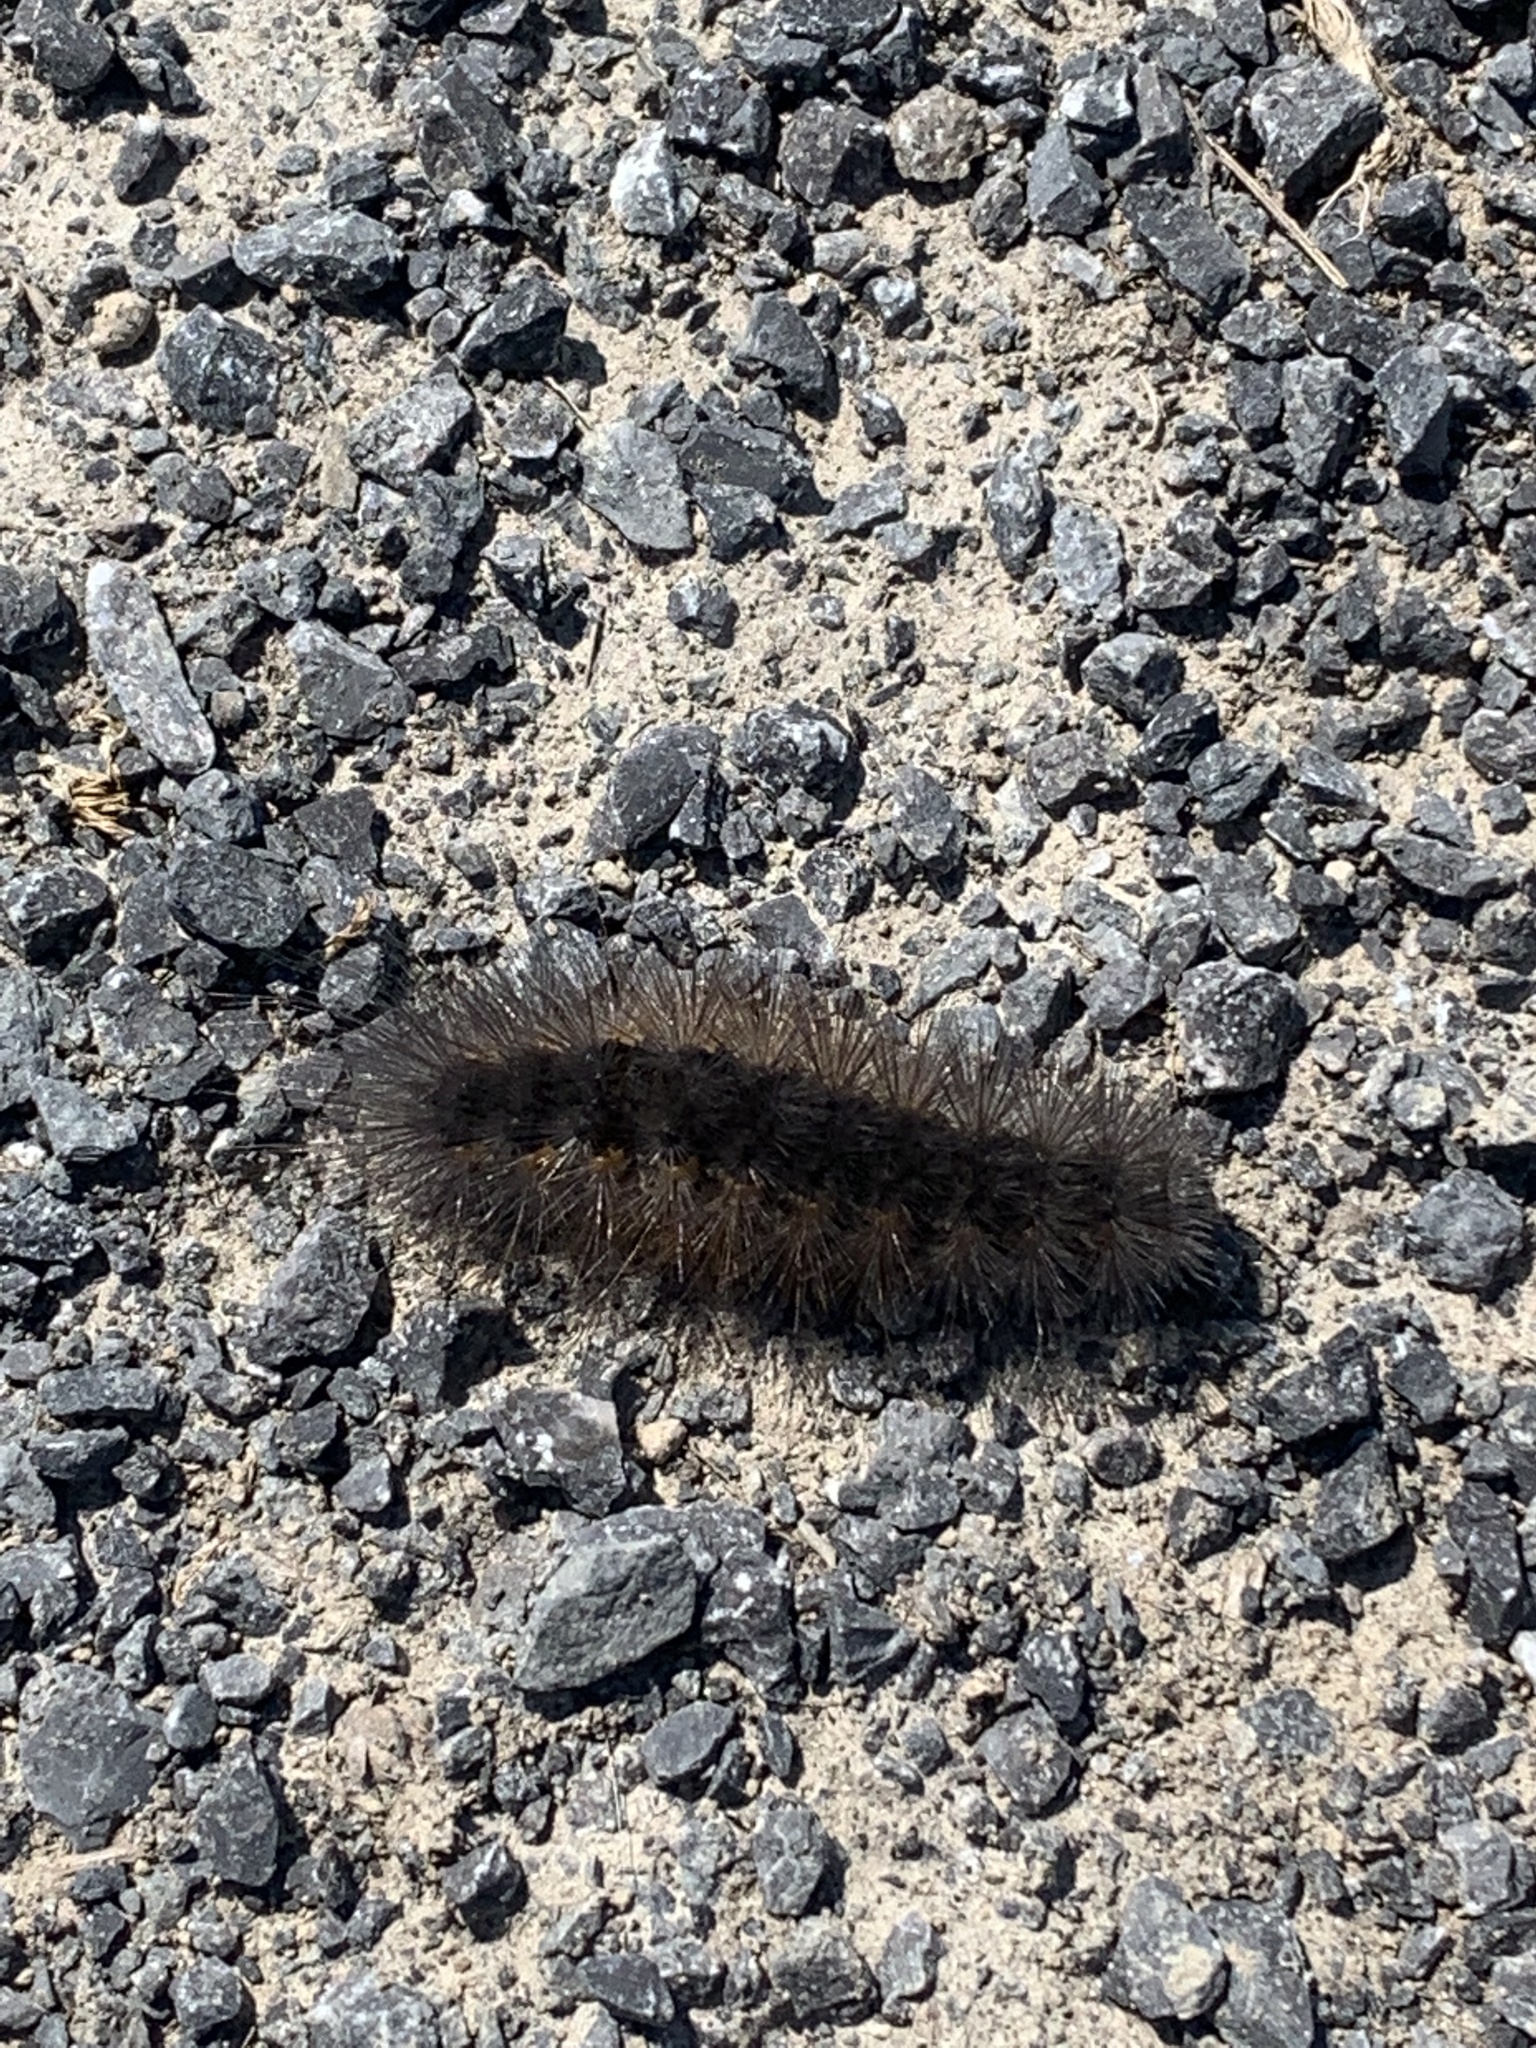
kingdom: Animalia
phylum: Arthropoda
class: Insecta
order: Lepidoptera
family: Erebidae
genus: Estigmene
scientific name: Estigmene acrea
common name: Salt marsh moth
